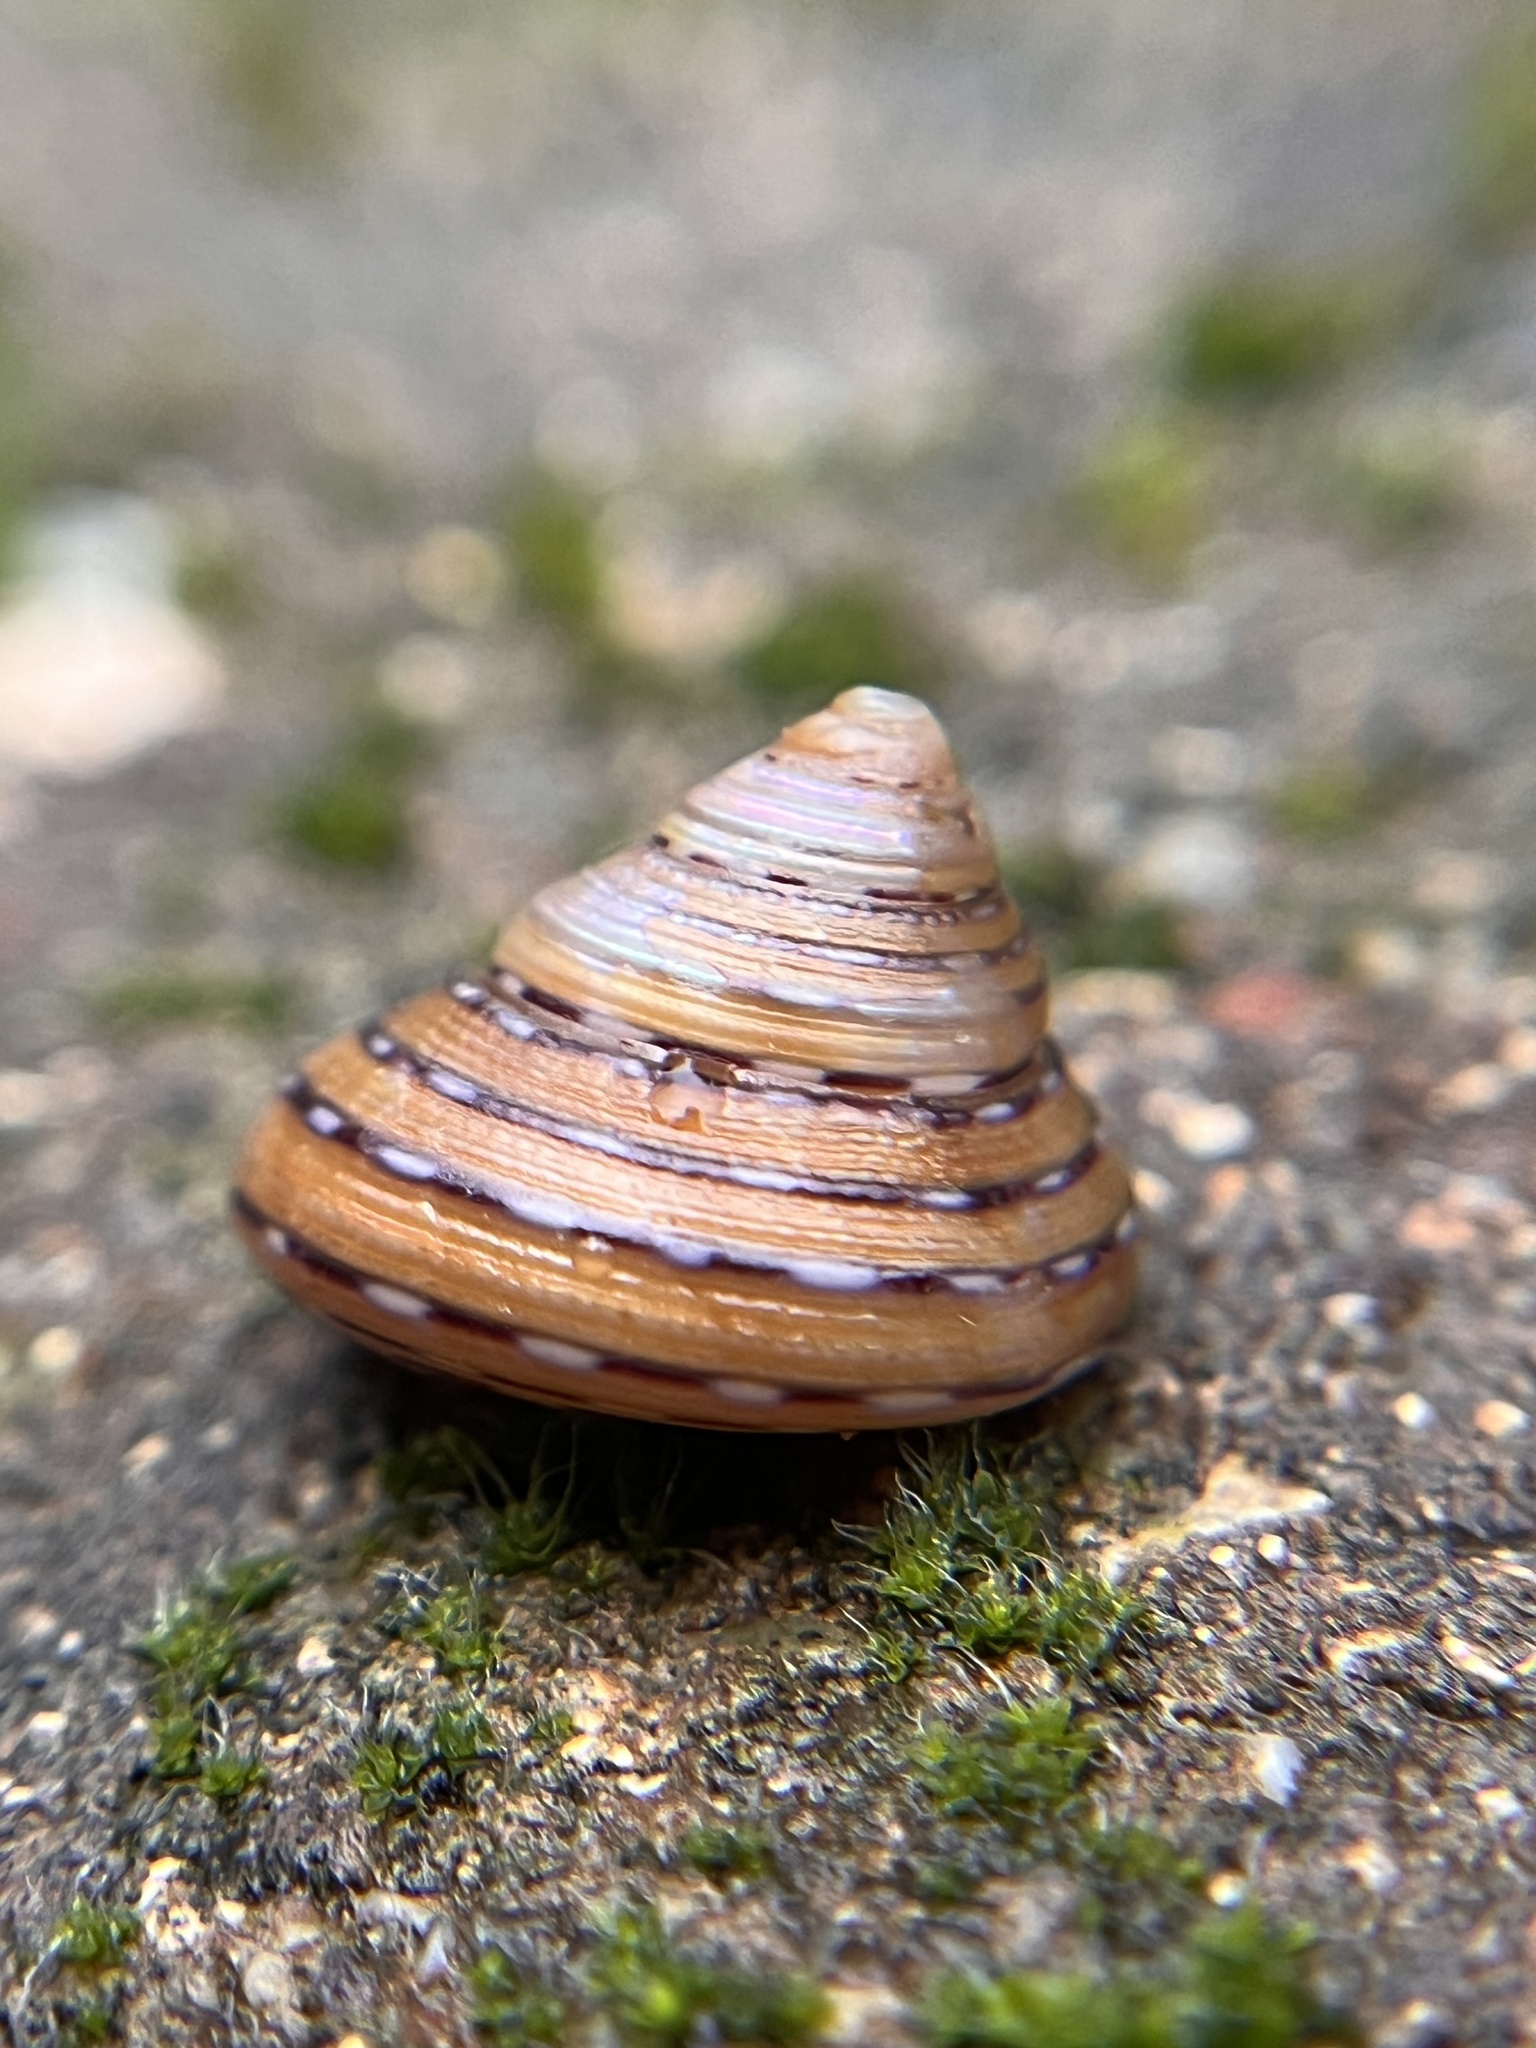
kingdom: Animalia
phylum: Mollusca
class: Gastropoda
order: Trochida
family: Calliostomatidae
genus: Calliostoma
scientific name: Calliostoma tricolor
